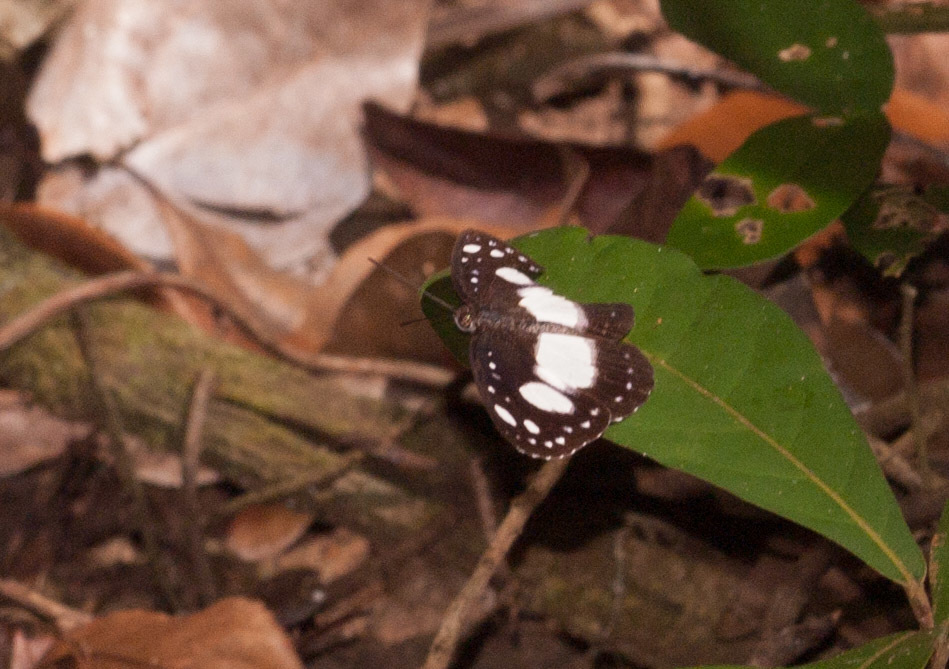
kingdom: Animalia
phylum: Arthropoda
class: Insecta
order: Lepidoptera
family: Nymphalidae
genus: Pantoporia
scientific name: Pantoporia venilia
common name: Cape york aeroplane
